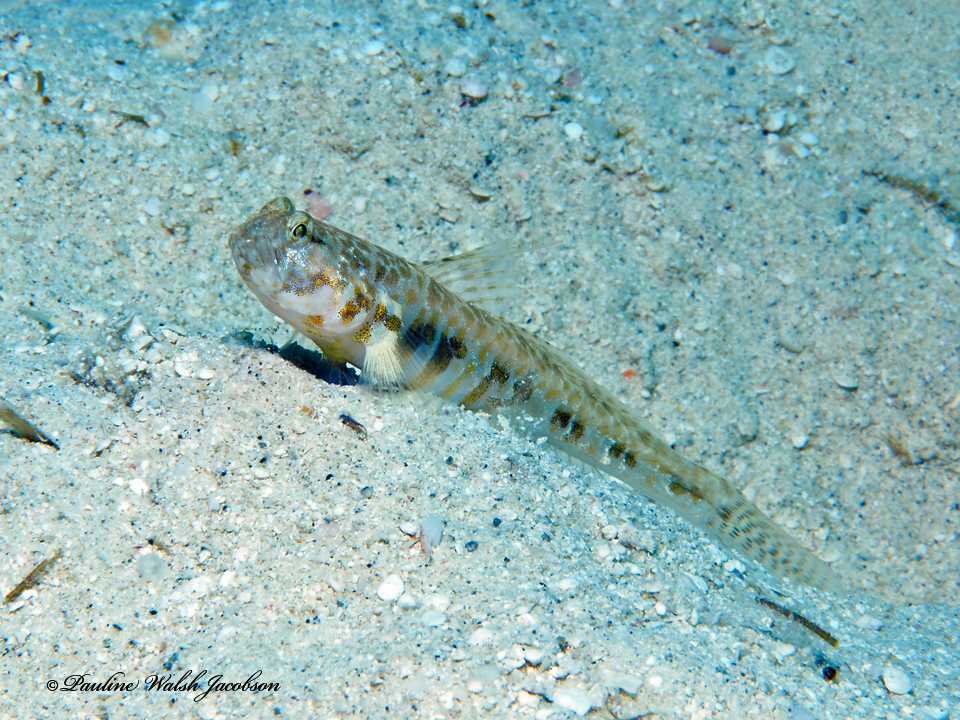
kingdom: Animalia
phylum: Chordata
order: Perciformes
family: Gobiidae
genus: Nes
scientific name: Nes longus
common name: Orangespotted goby
